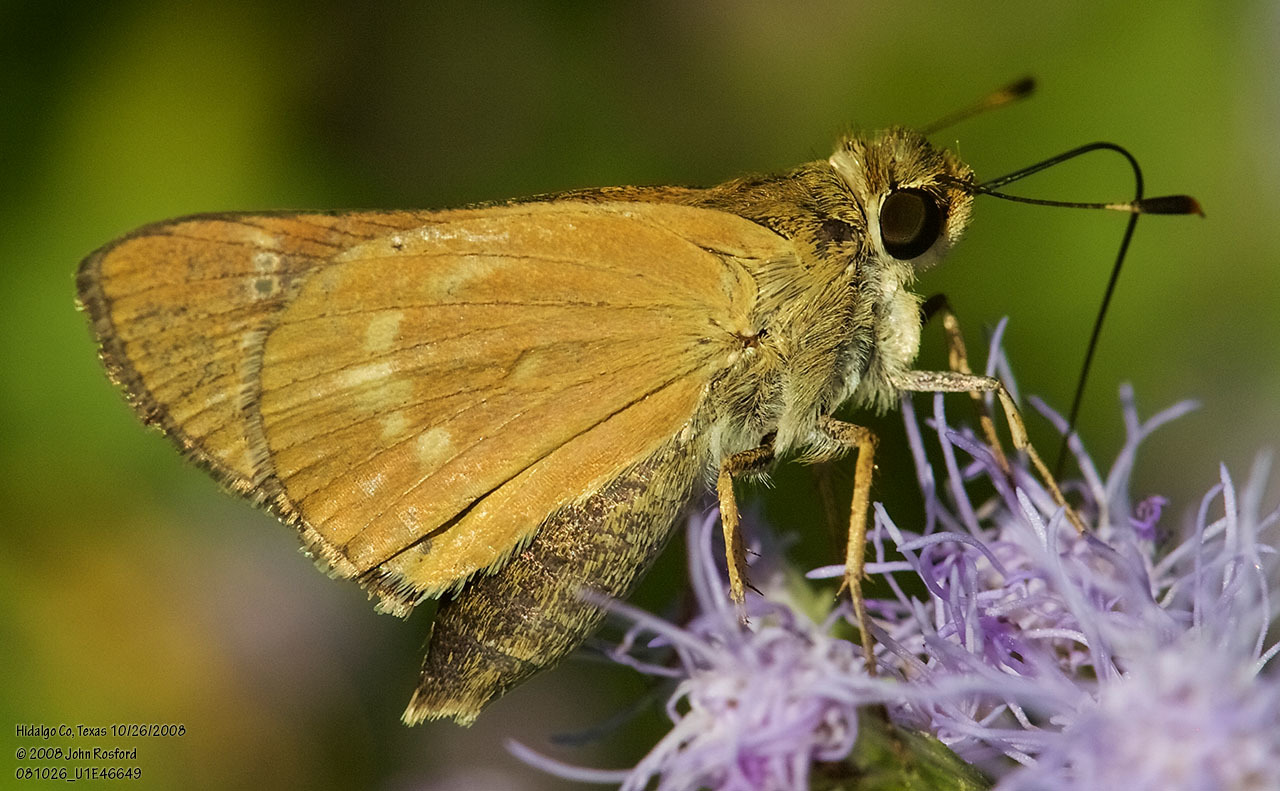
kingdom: Animalia
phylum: Arthropoda
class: Insecta
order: Lepidoptera
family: Hesperiidae
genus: Mellana
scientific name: Mellana eulogius
